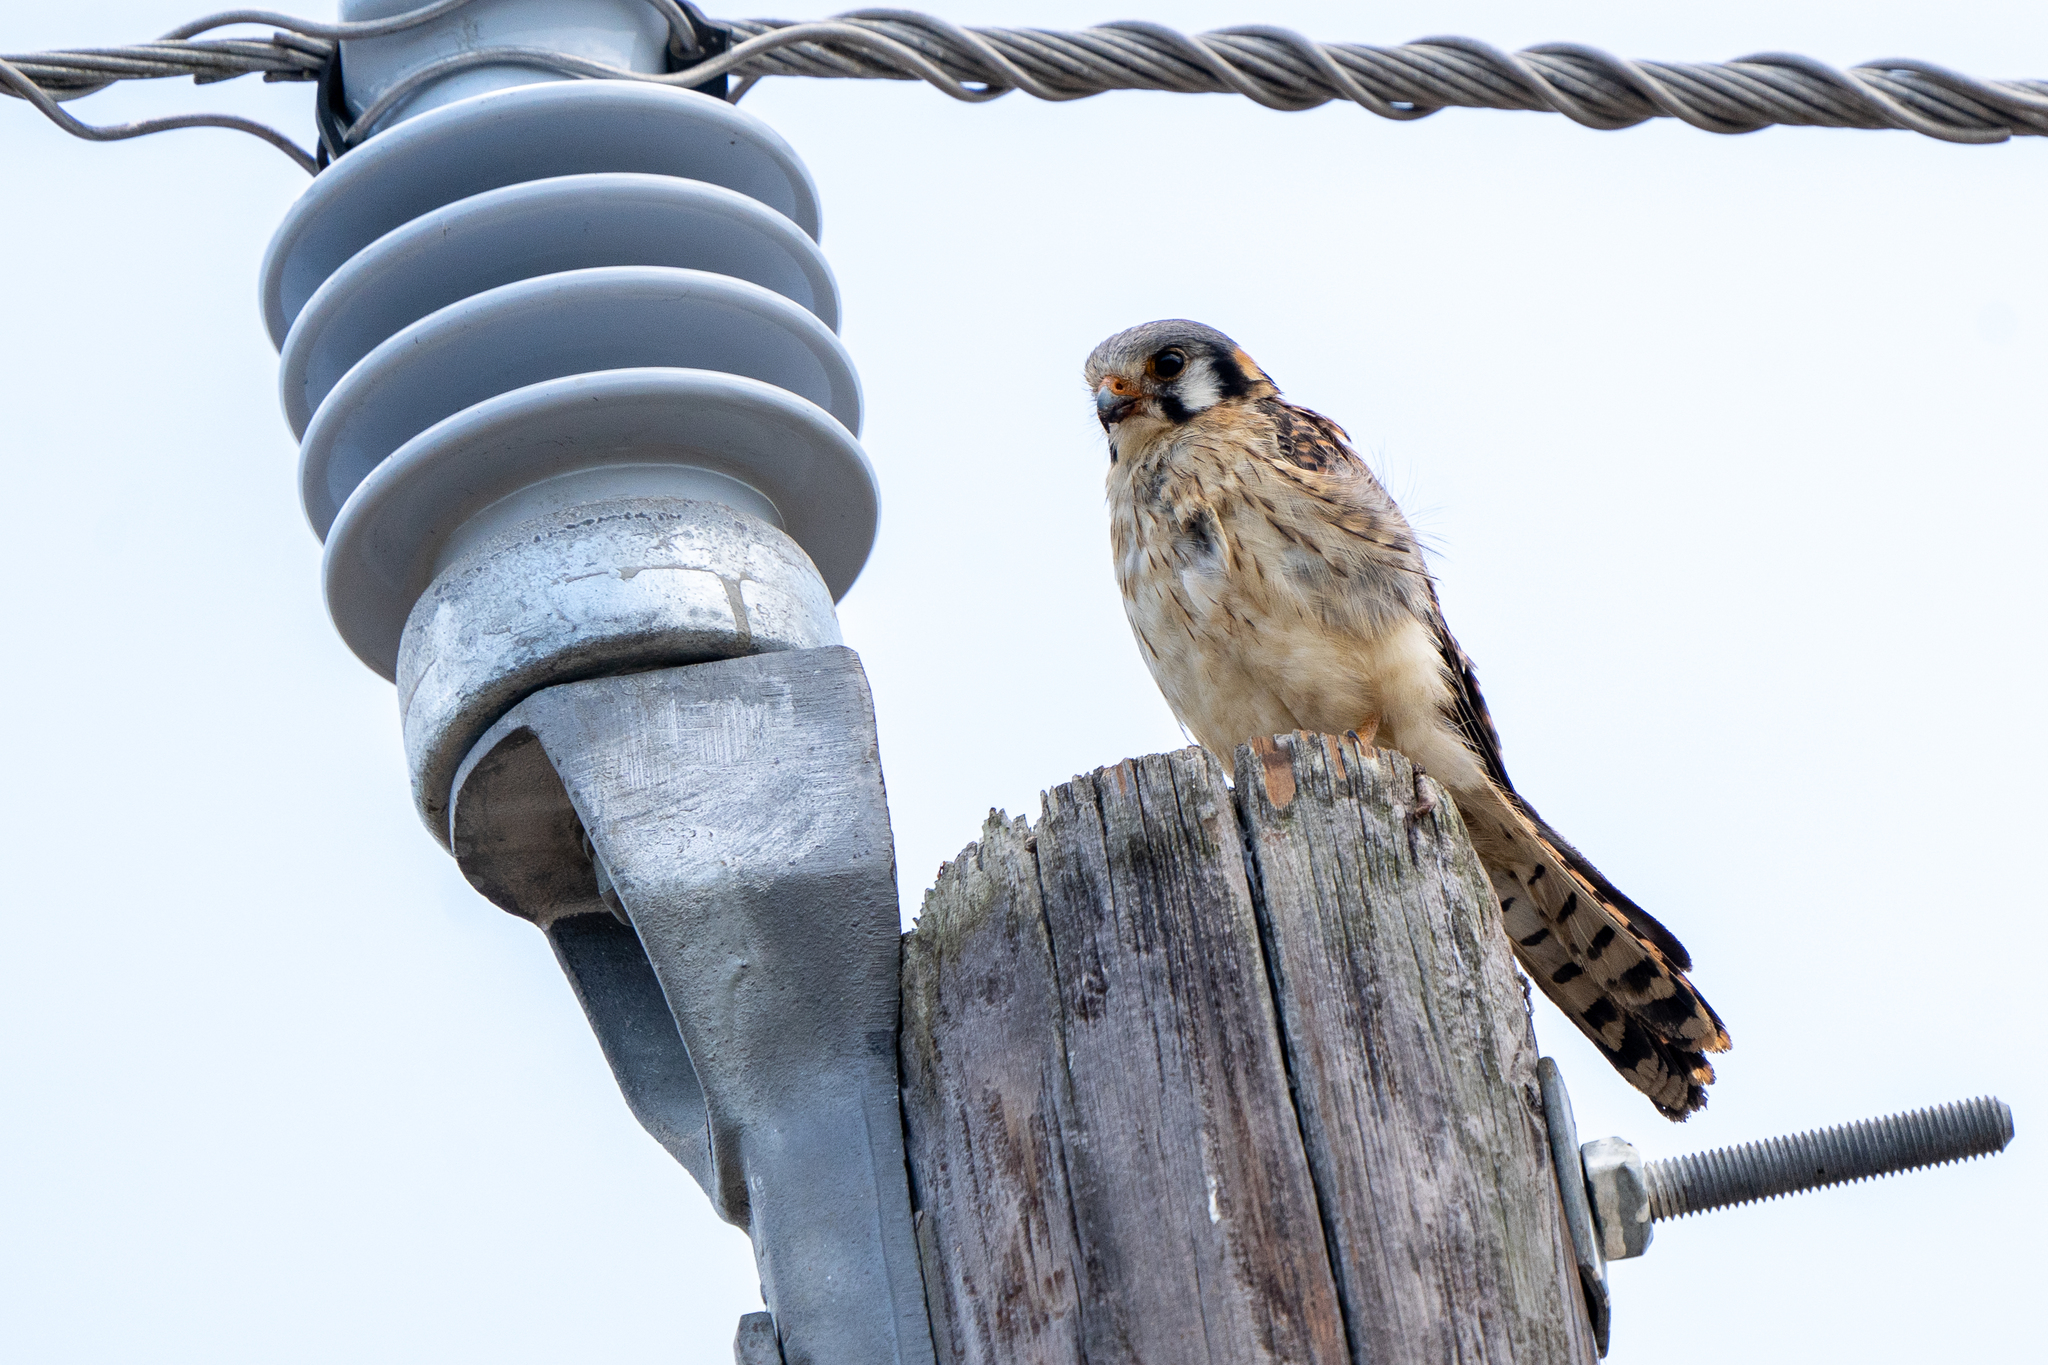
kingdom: Animalia
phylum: Chordata
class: Aves
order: Falconiformes
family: Falconidae
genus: Falco
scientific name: Falco sparverius
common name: American kestrel
